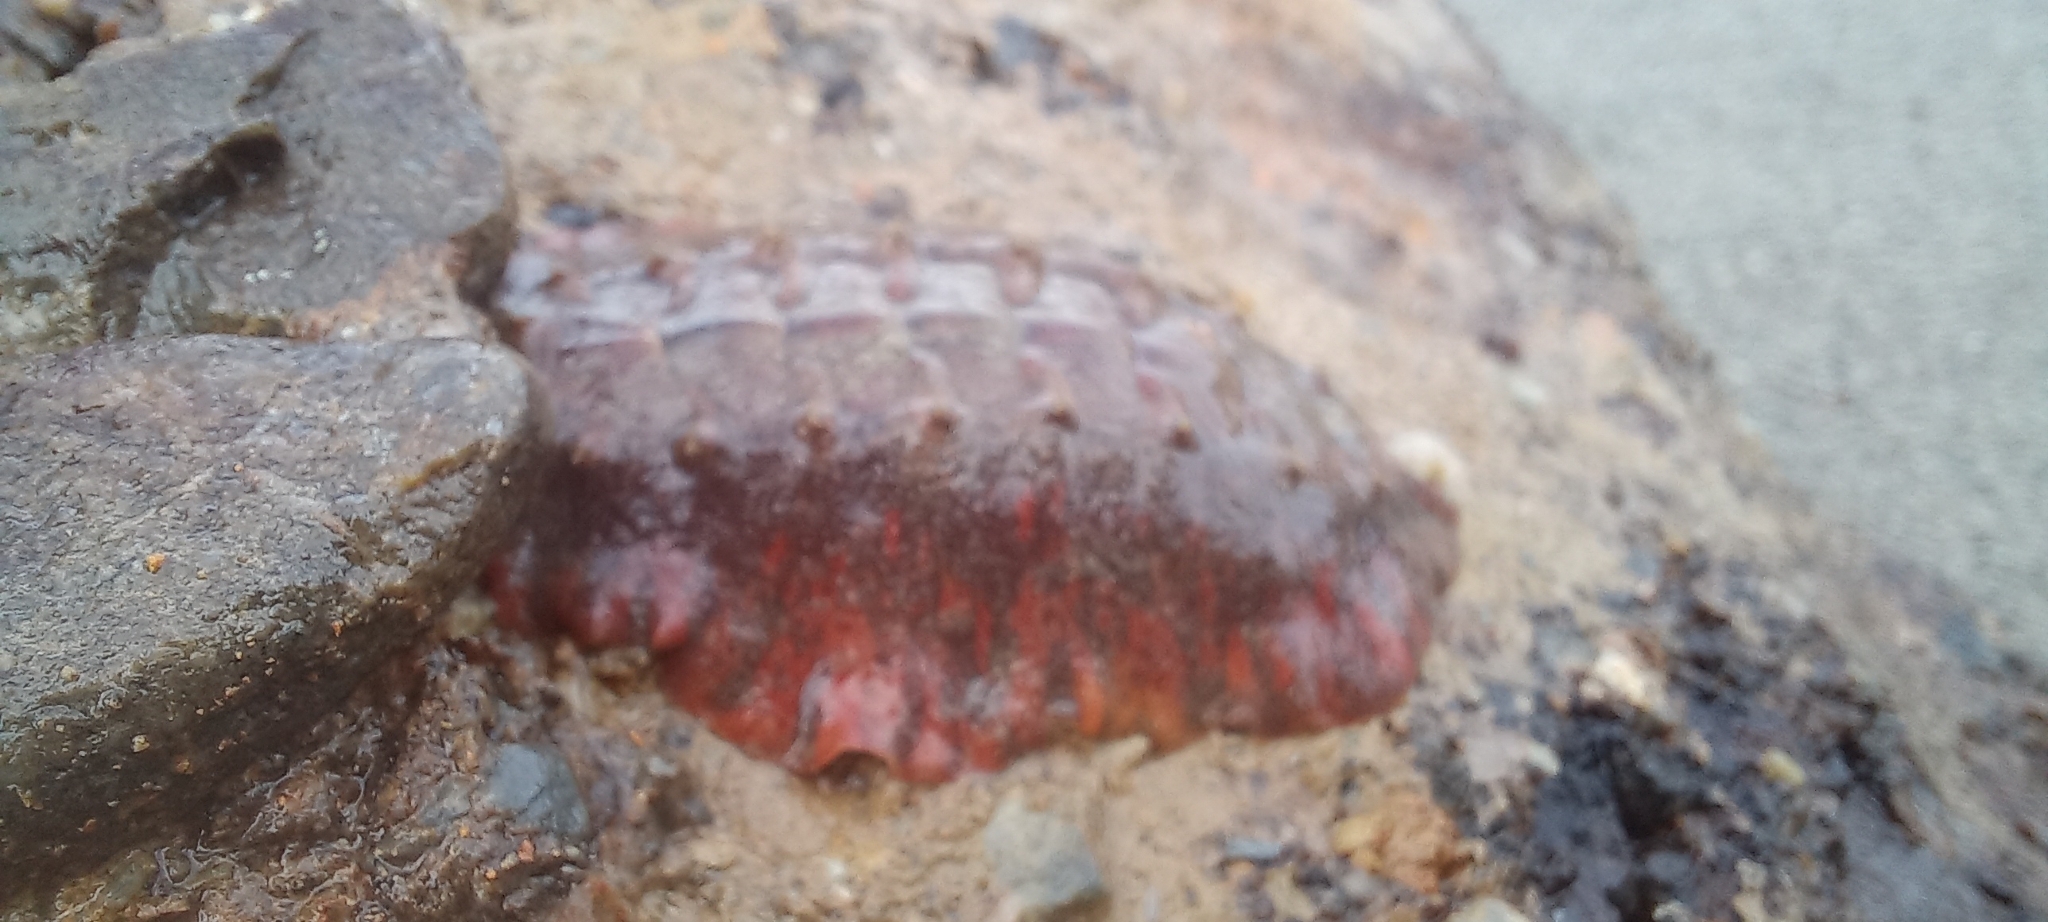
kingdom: Animalia
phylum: Mollusca
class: Polyplacophora
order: Chitonida
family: Acanthochitonidae
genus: Notoplax
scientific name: Notoplax violacea
